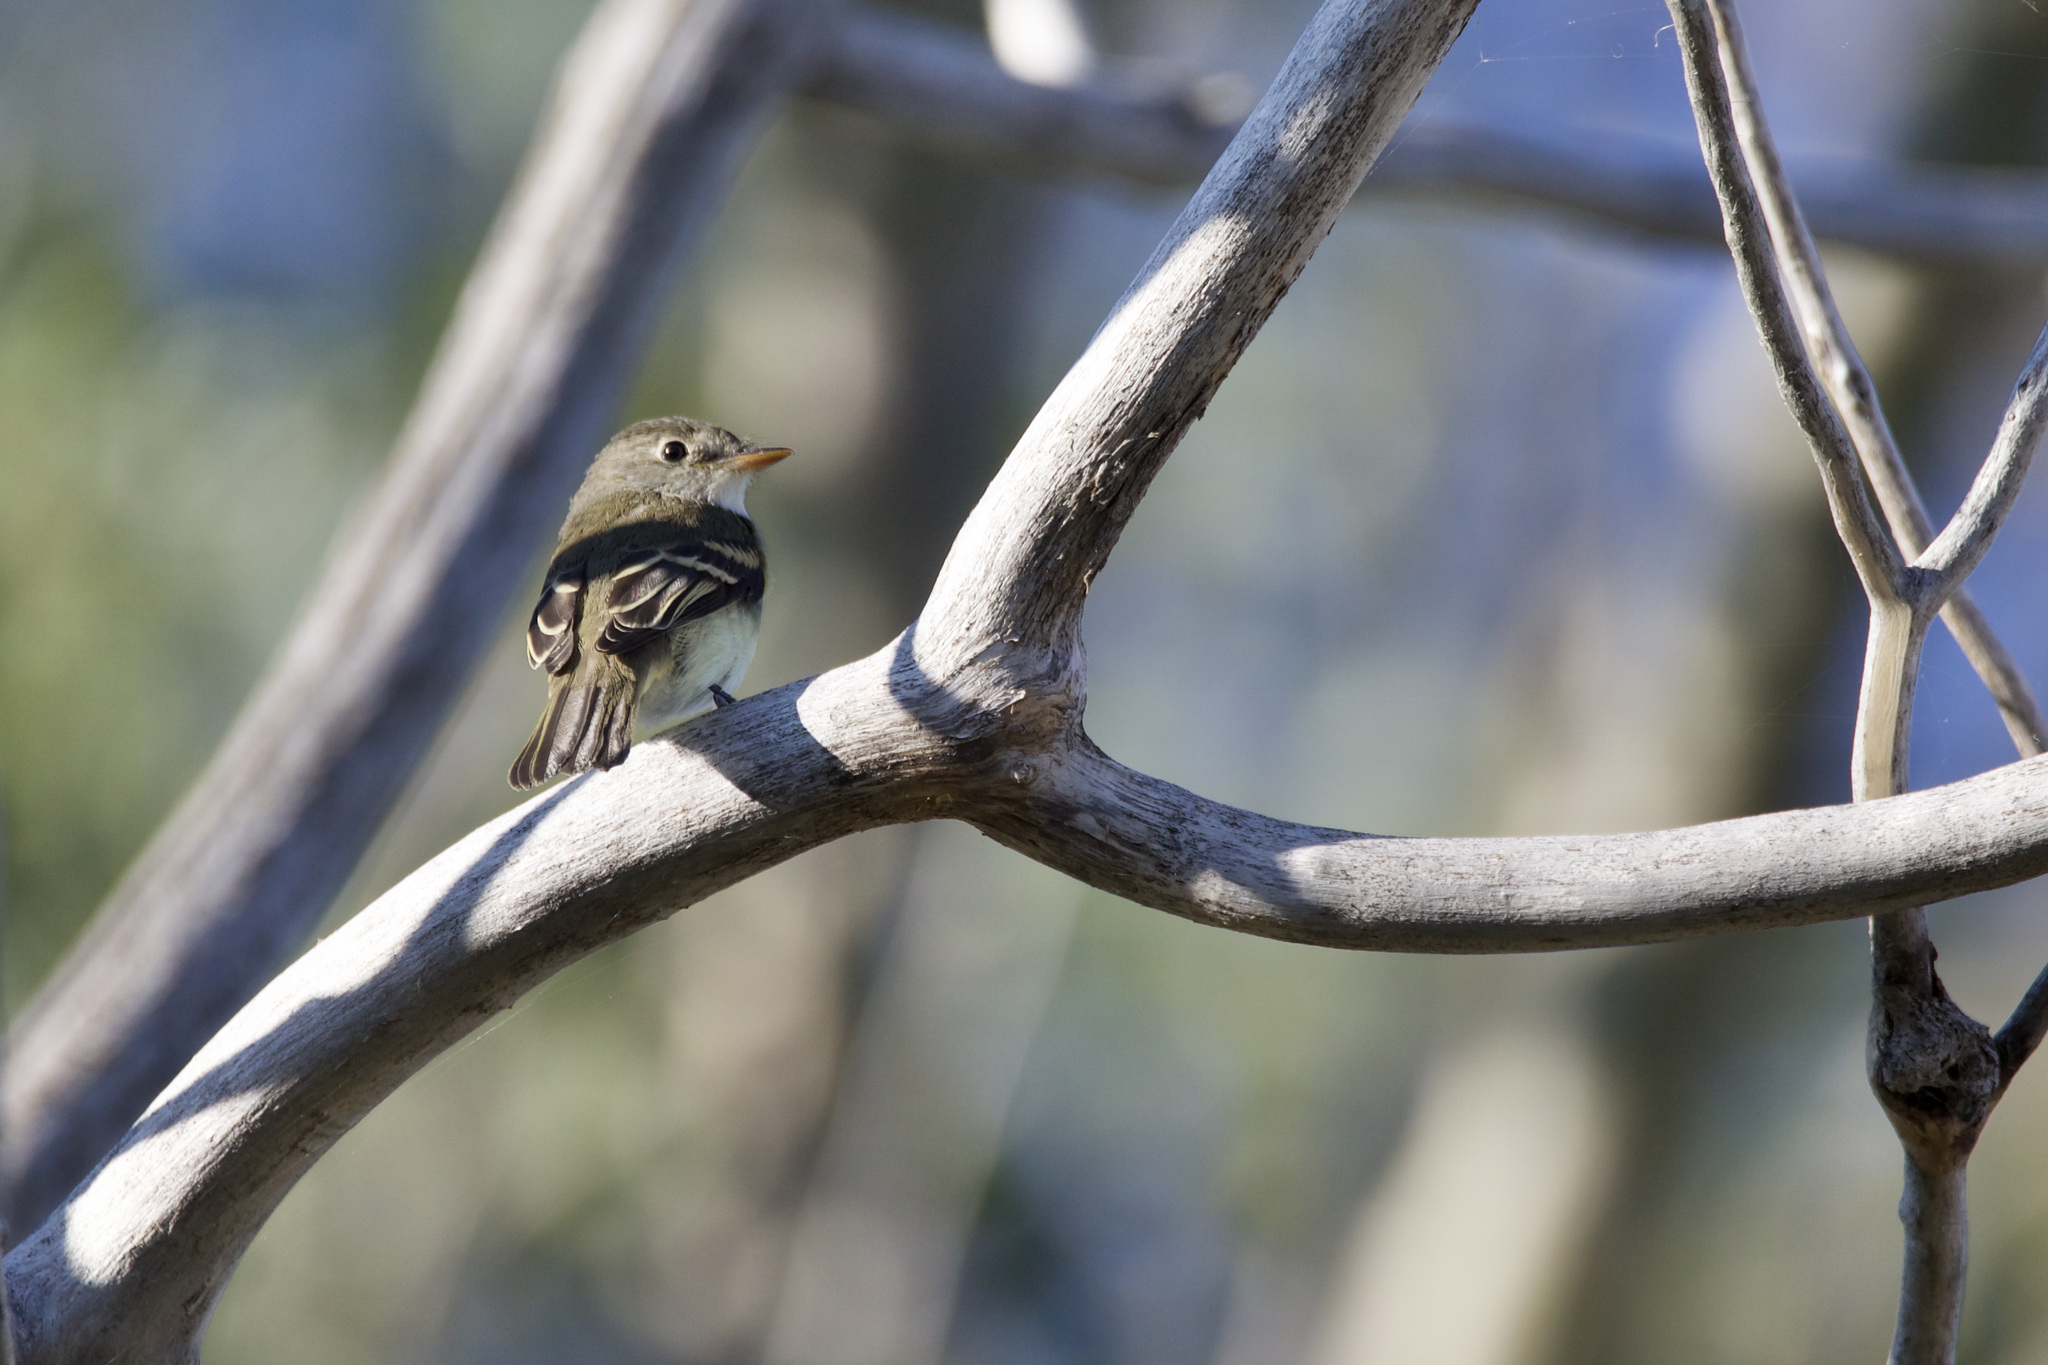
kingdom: Animalia
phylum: Chordata
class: Aves
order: Passeriformes
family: Tyrannidae
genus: Empidonax
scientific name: Empidonax minimus
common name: Least flycatcher
